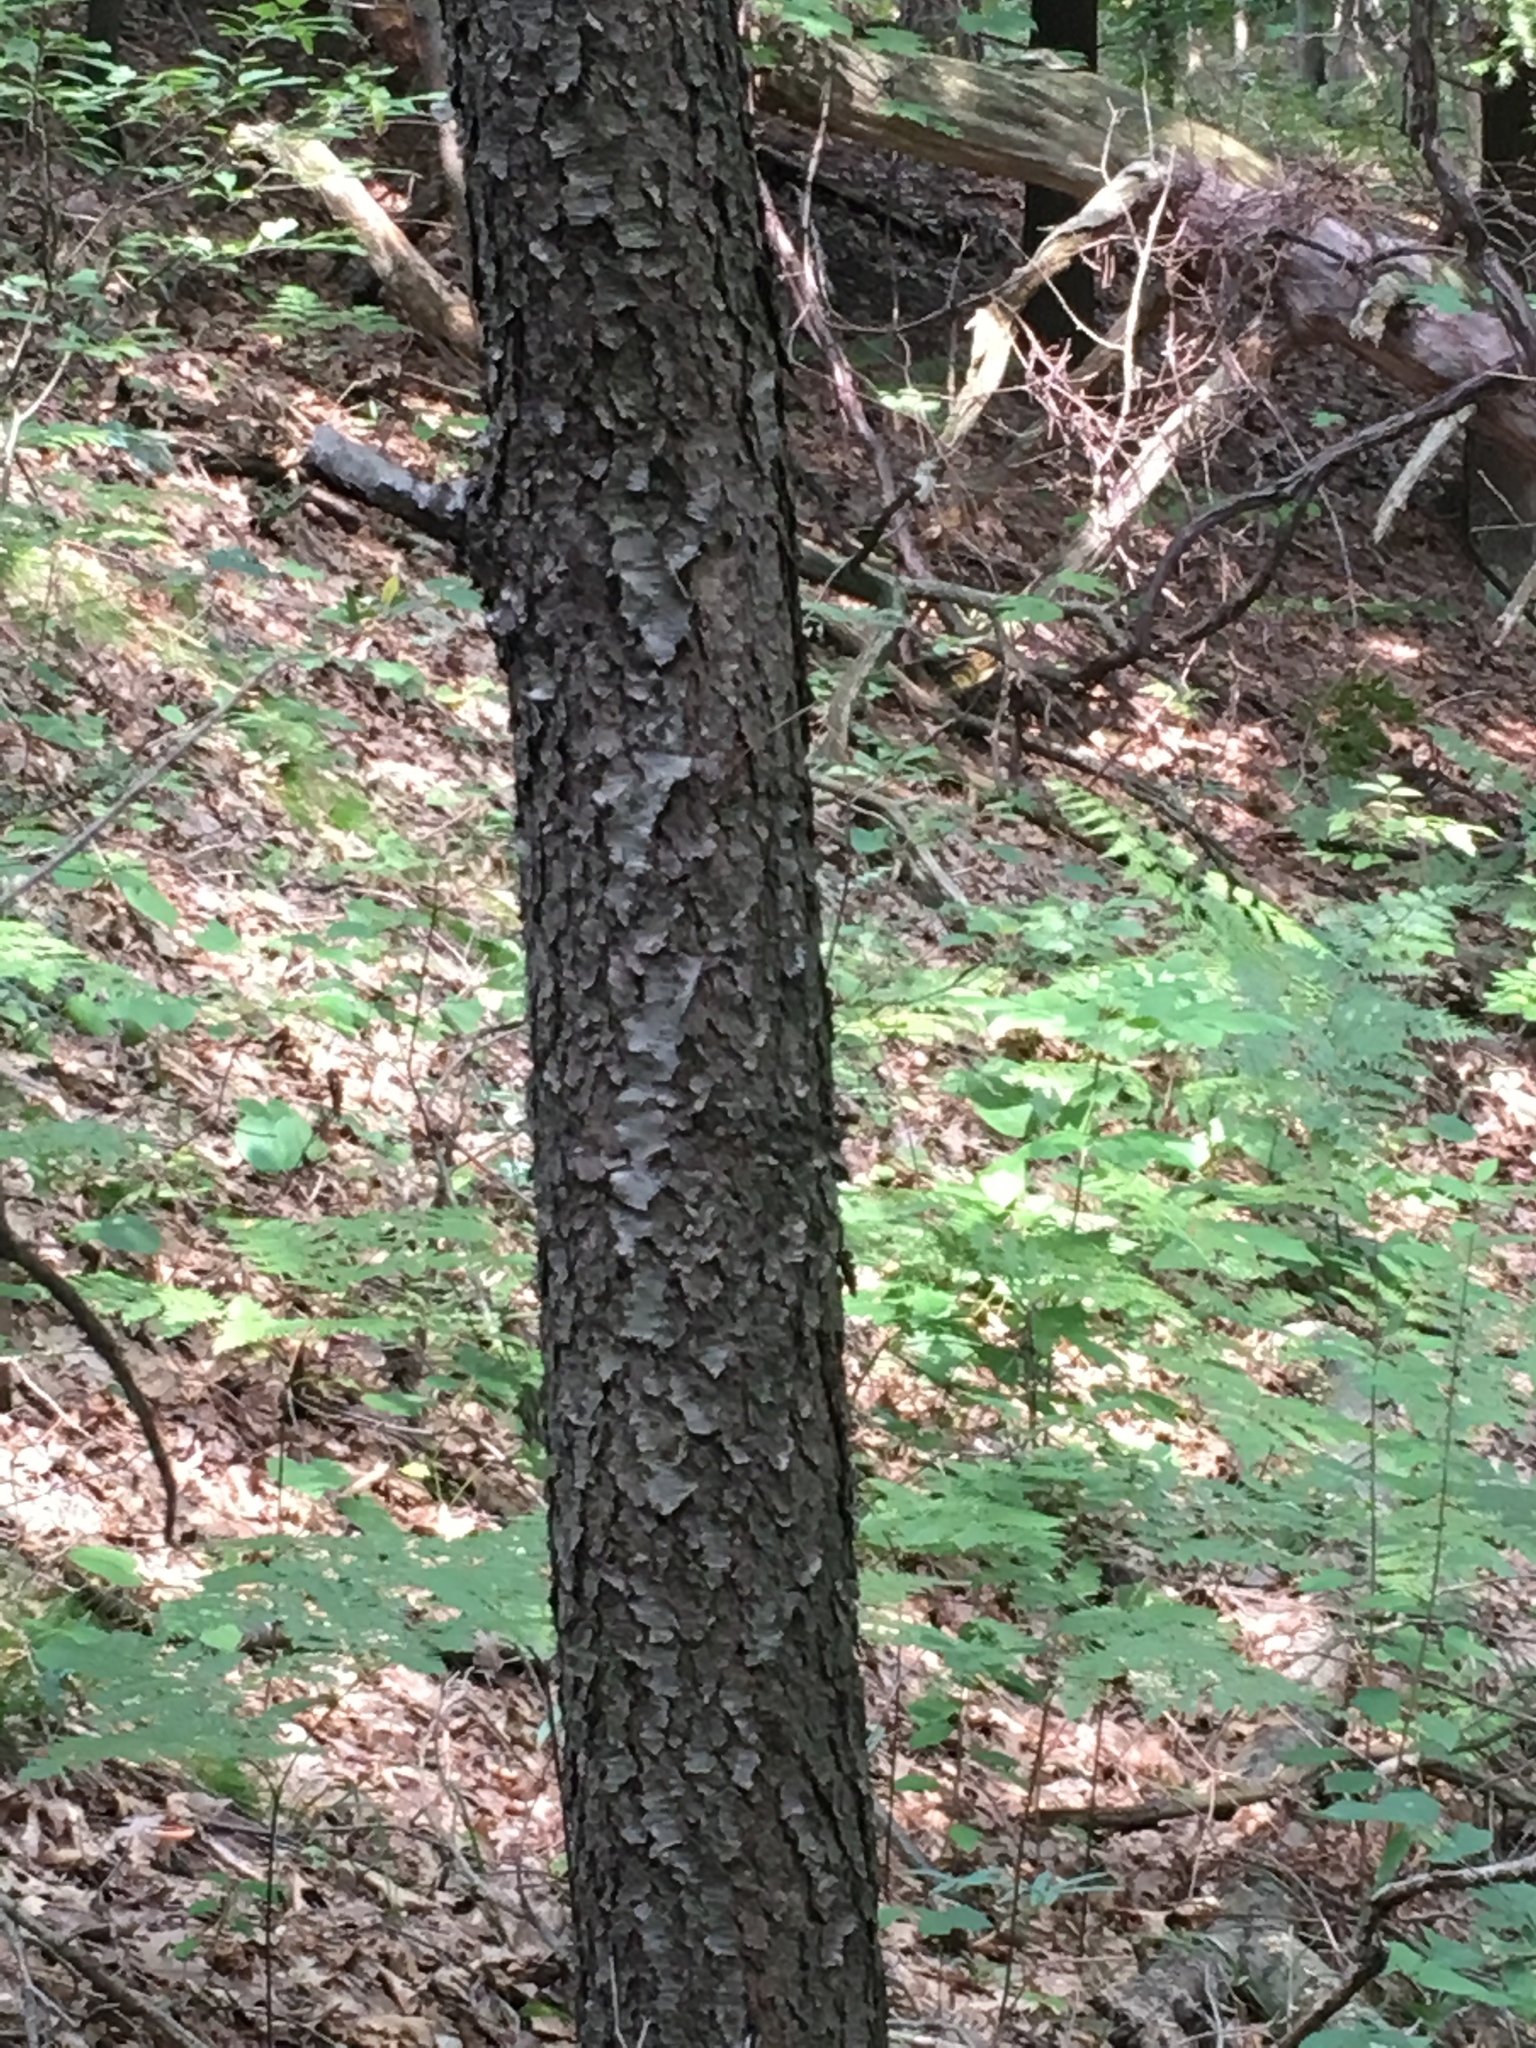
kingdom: Plantae
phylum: Tracheophyta
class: Magnoliopsida
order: Rosales
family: Rosaceae
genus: Prunus
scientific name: Prunus serotina
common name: Black cherry
